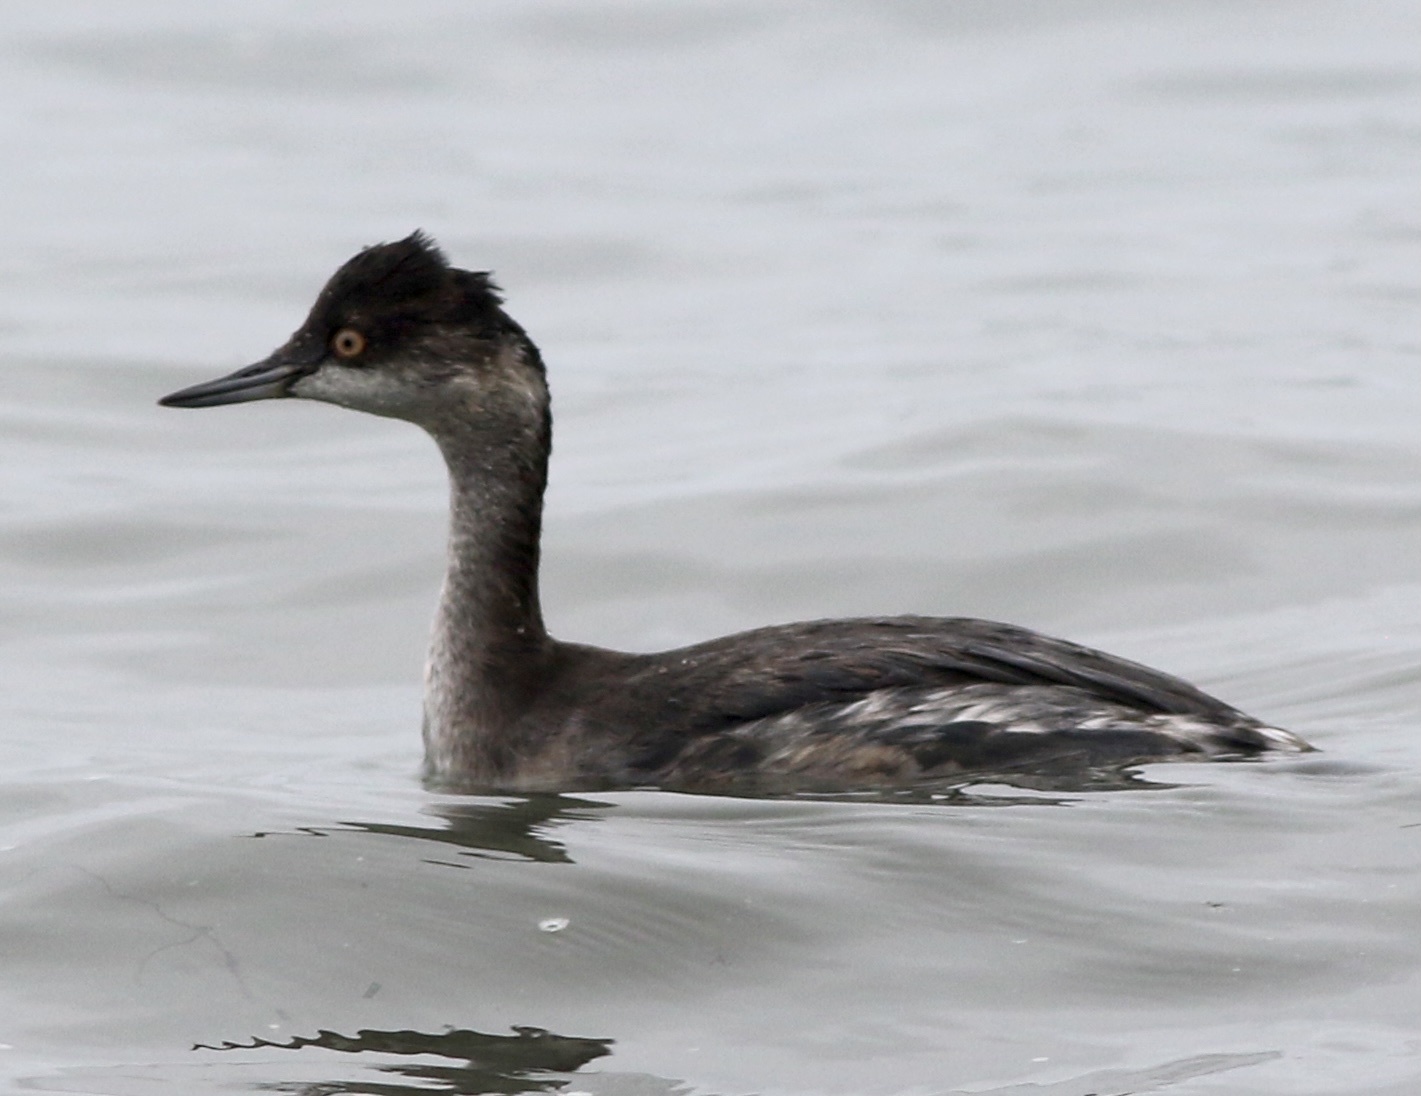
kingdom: Animalia
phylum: Chordata
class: Aves
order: Podicipediformes
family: Podicipedidae
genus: Podiceps
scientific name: Podiceps nigricollis
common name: Black-necked grebe
